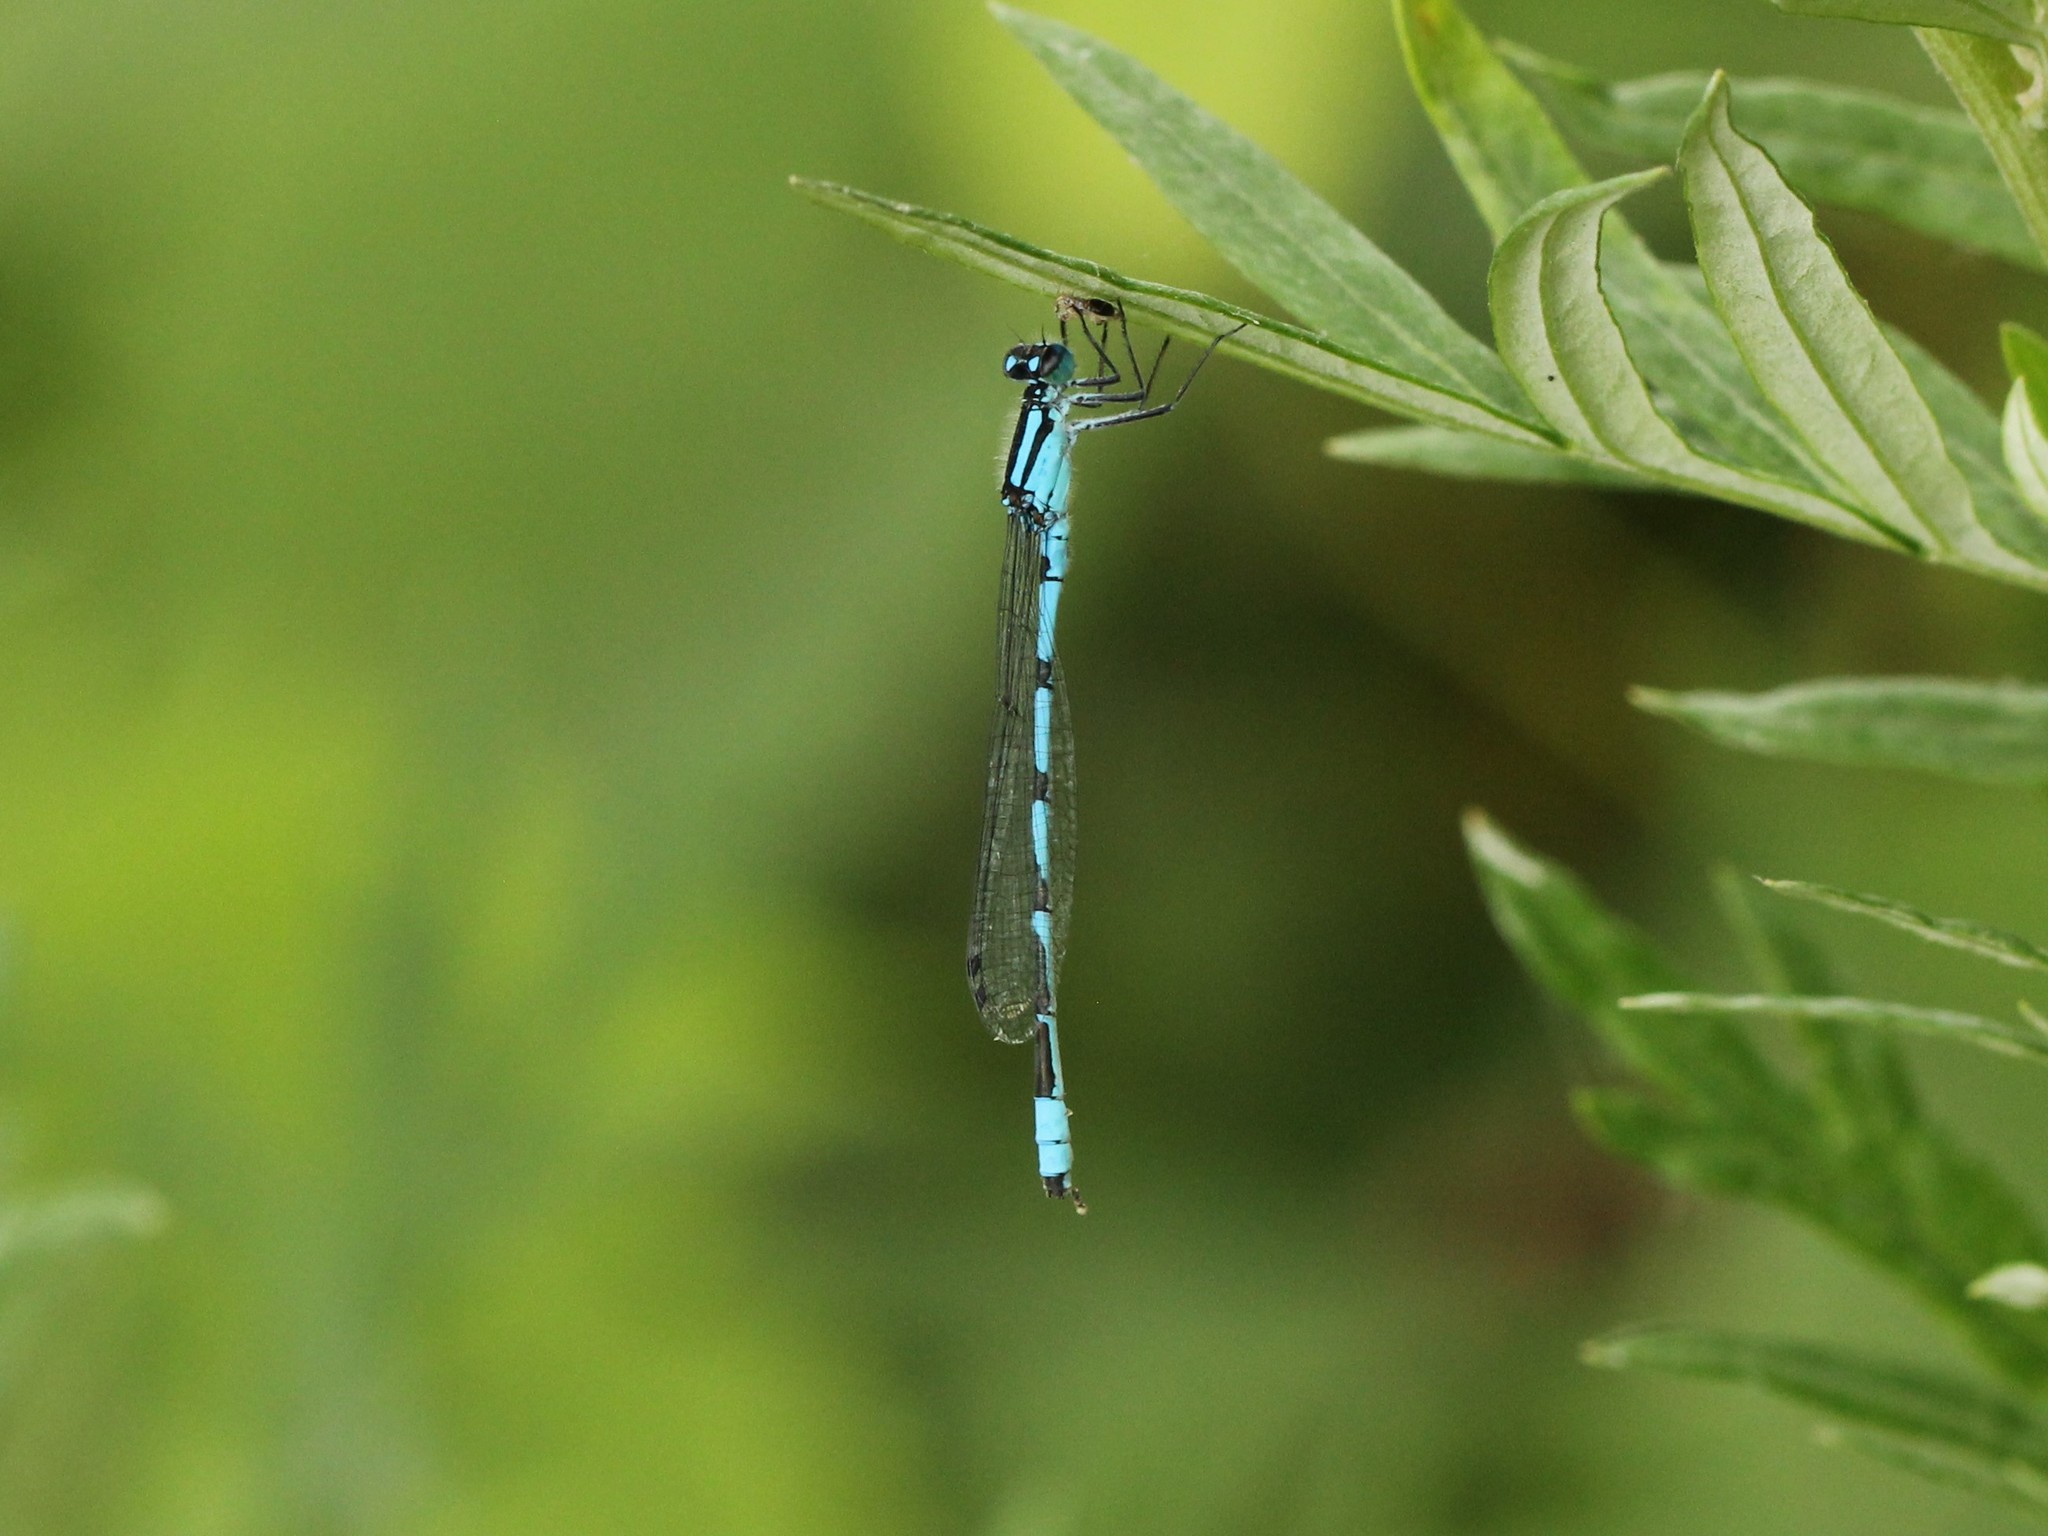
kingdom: Animalia
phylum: Arthropoda
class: Insecta
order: Odonata
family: Coenagrionidae
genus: Enallagma
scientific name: Enallagma ebrium
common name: Marsh bluet
